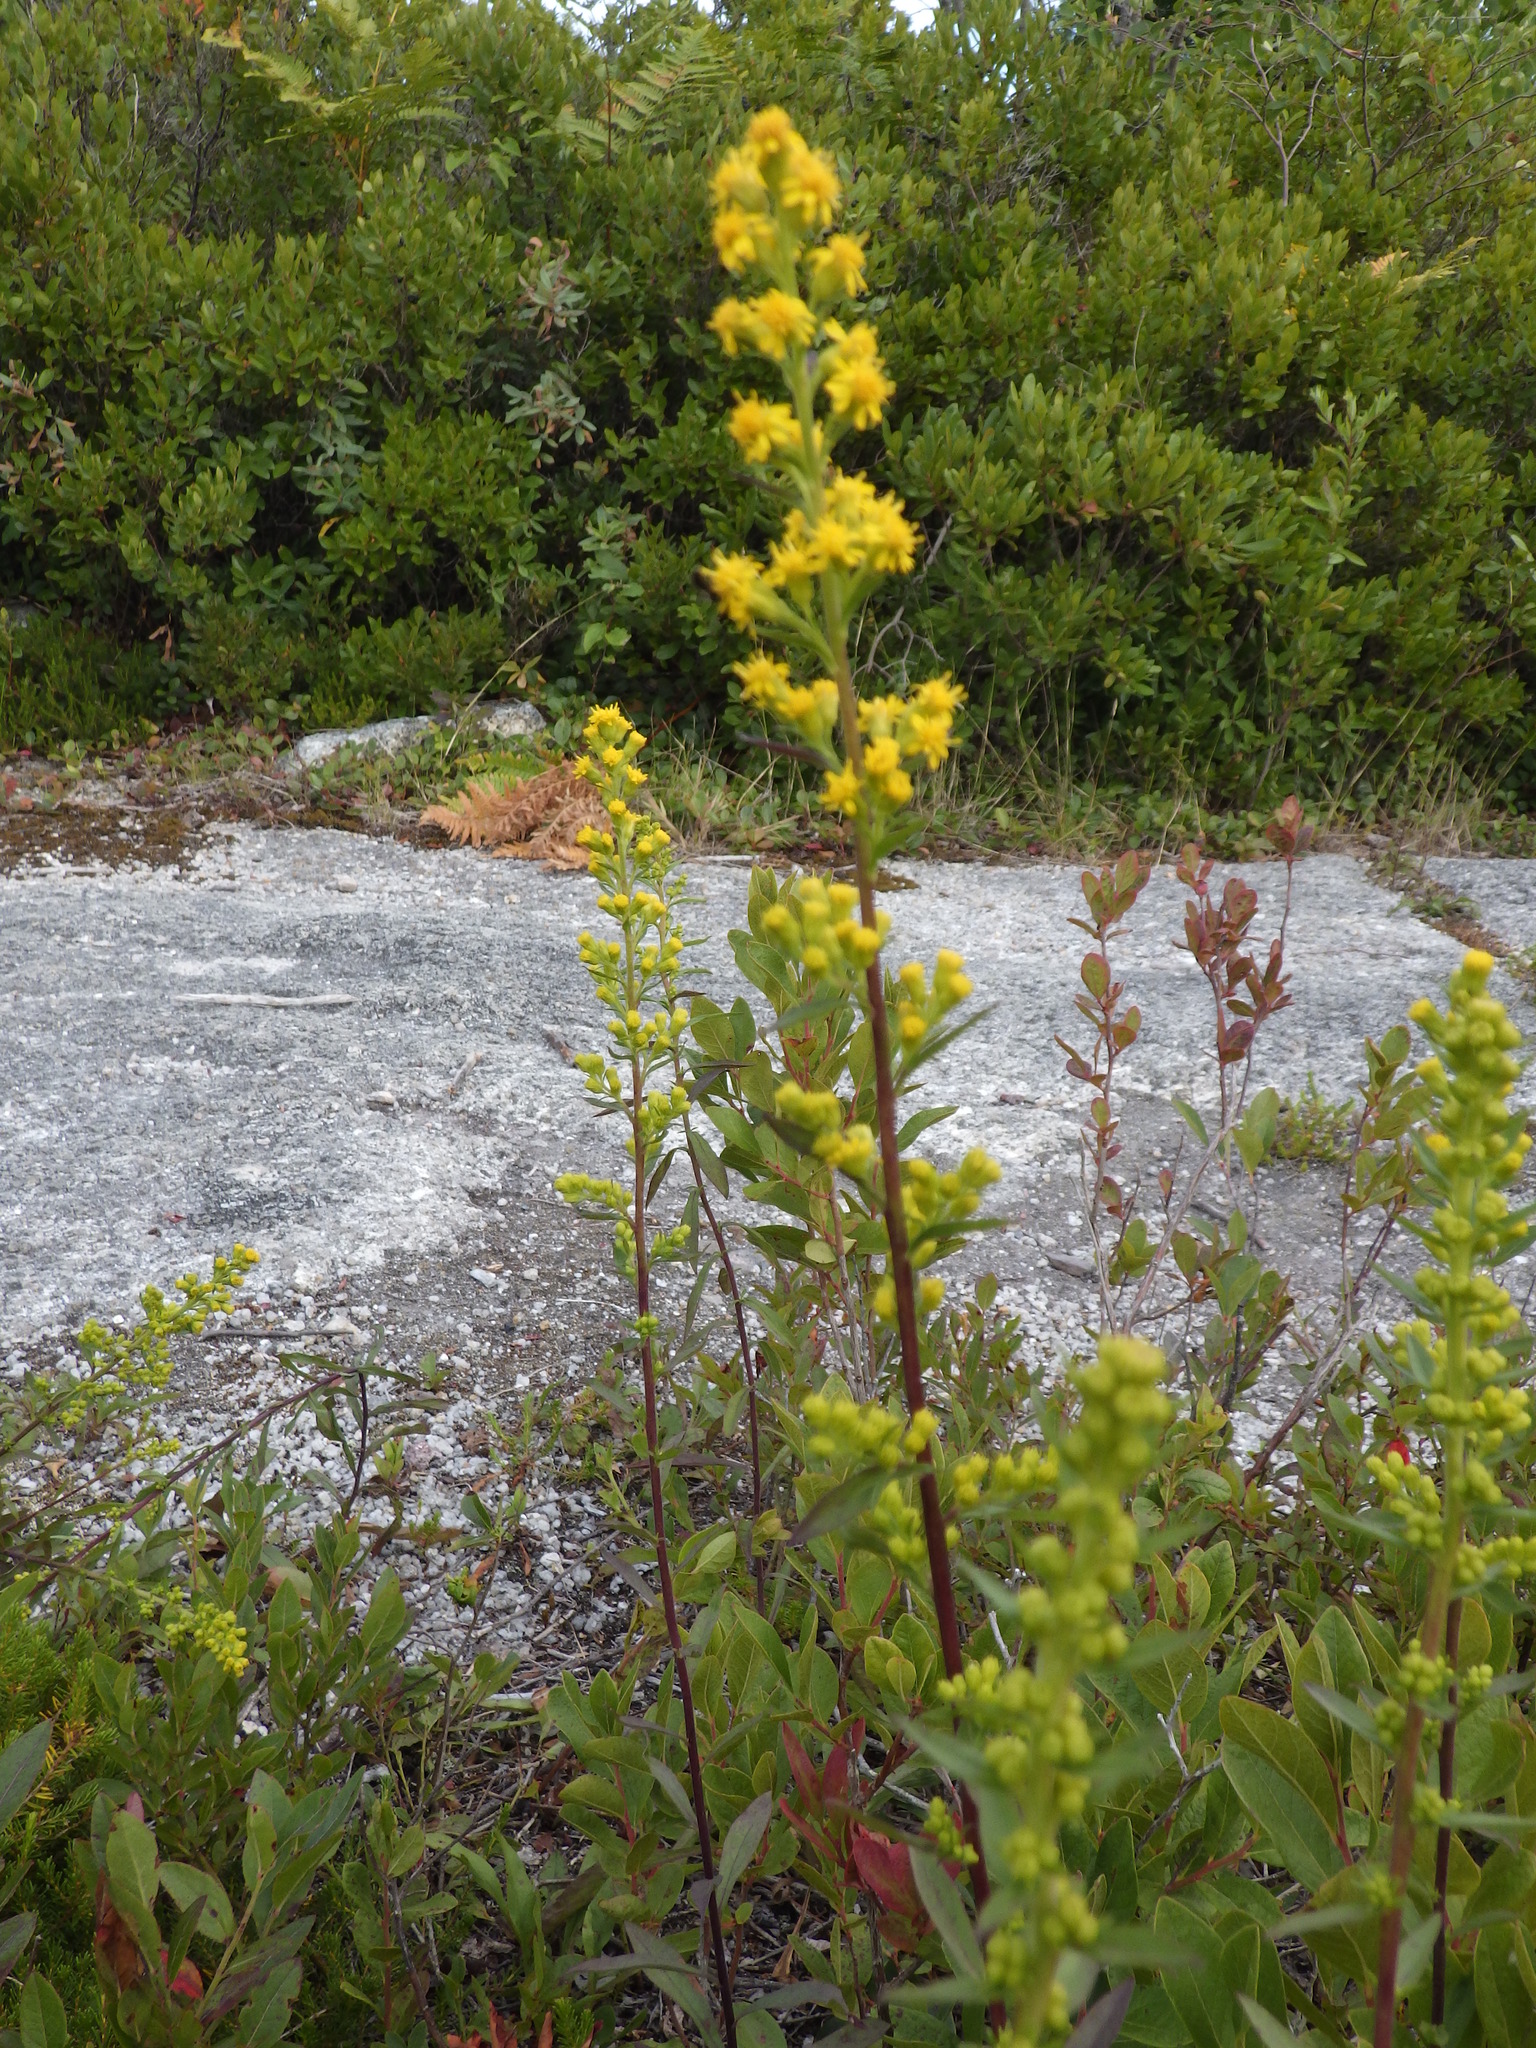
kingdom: Plantae
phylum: Tracheophyta
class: Magnoliopsida
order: Asterales
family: Asteraceae
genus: Solidago
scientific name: Solidago puberula
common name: Downy goldenrod
